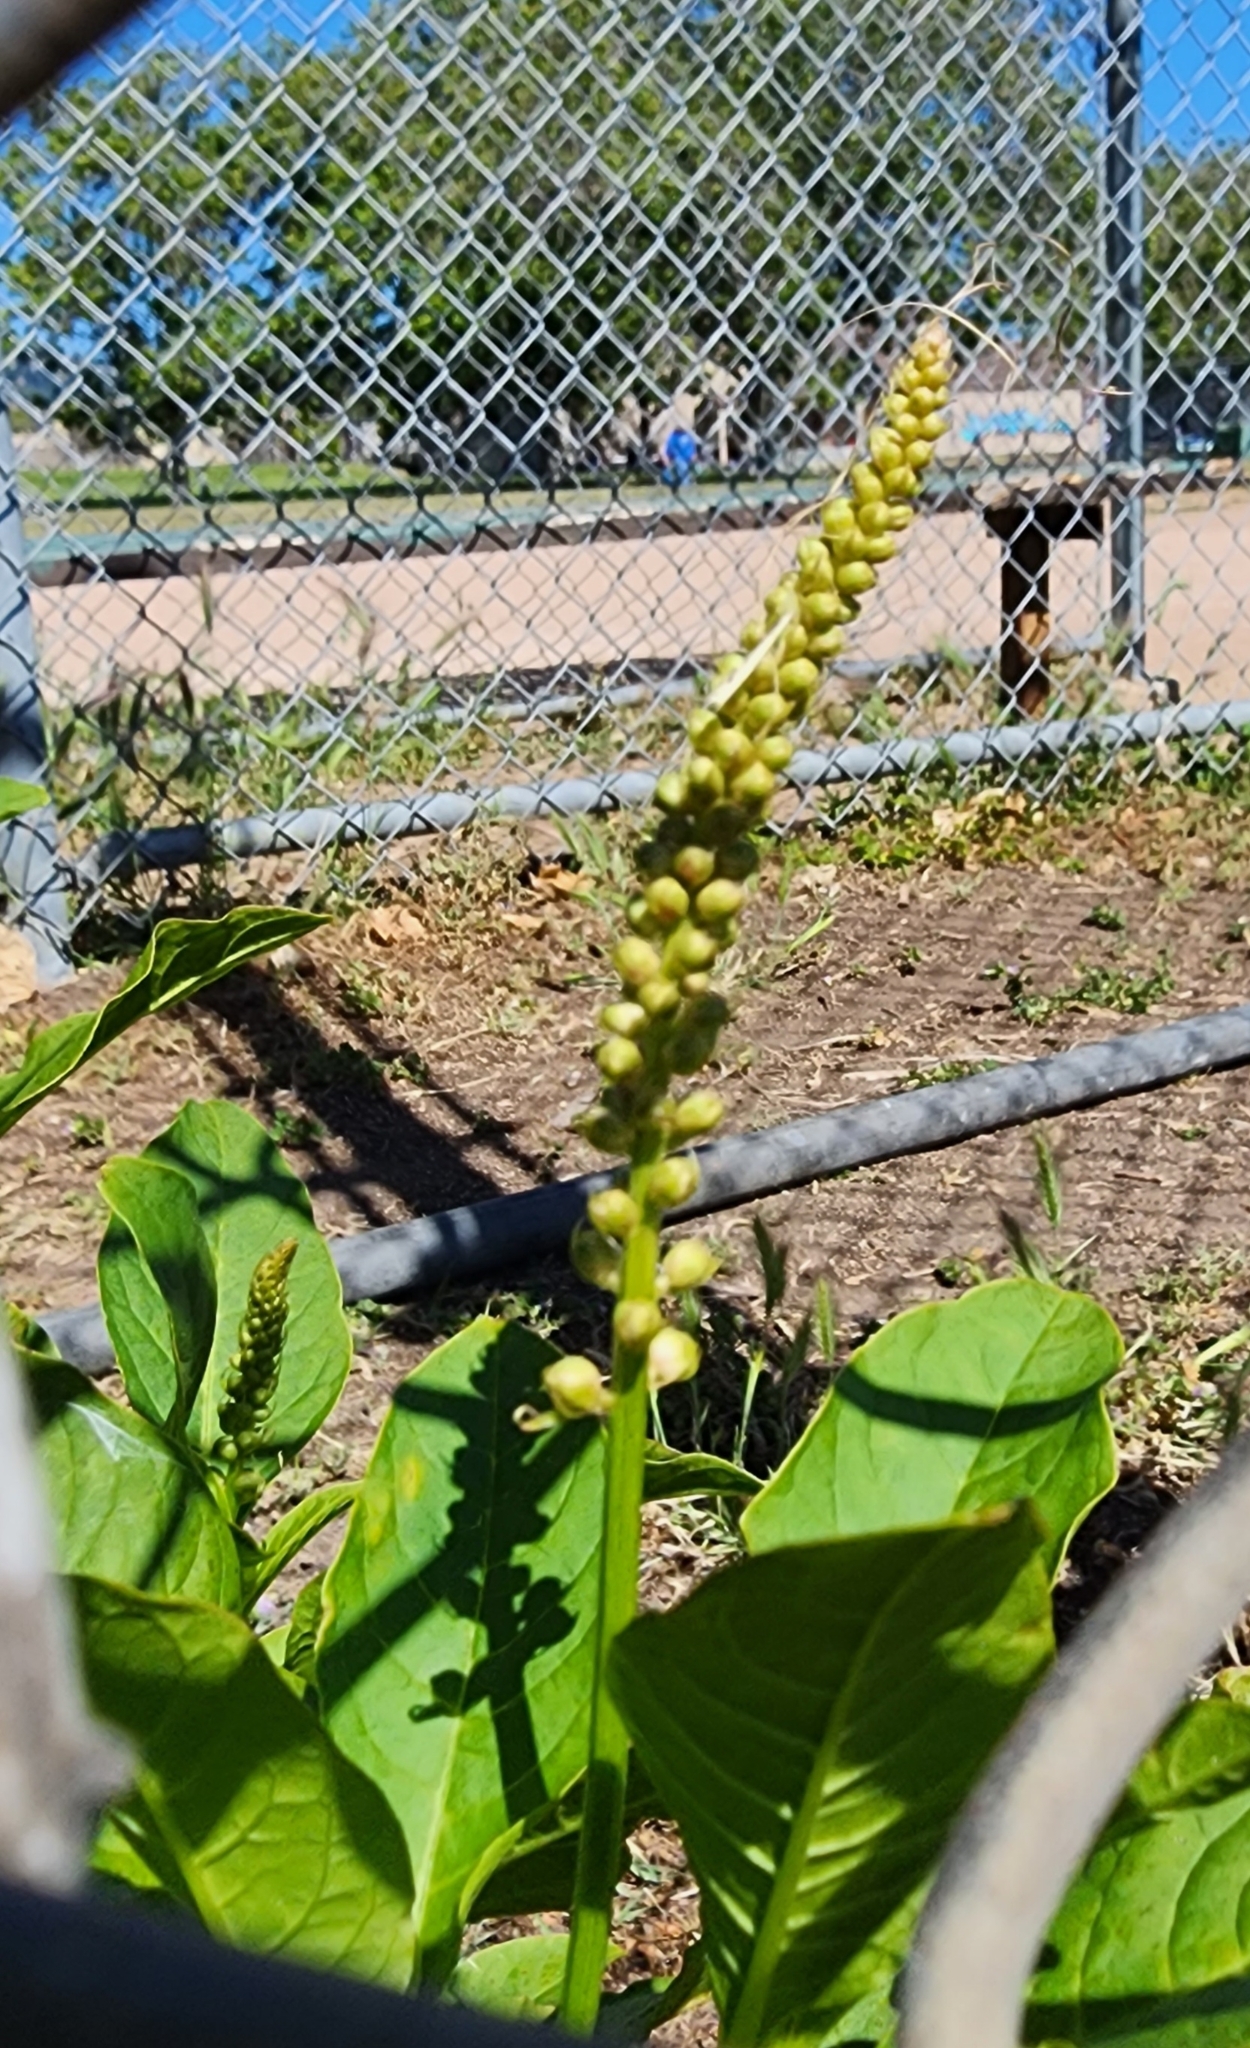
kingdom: Plantae
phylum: Tracheophyta
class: Magnoliopsida
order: Caryophyllales
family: Phytolaccaceae
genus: Phytolacca
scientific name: Phytolacca
